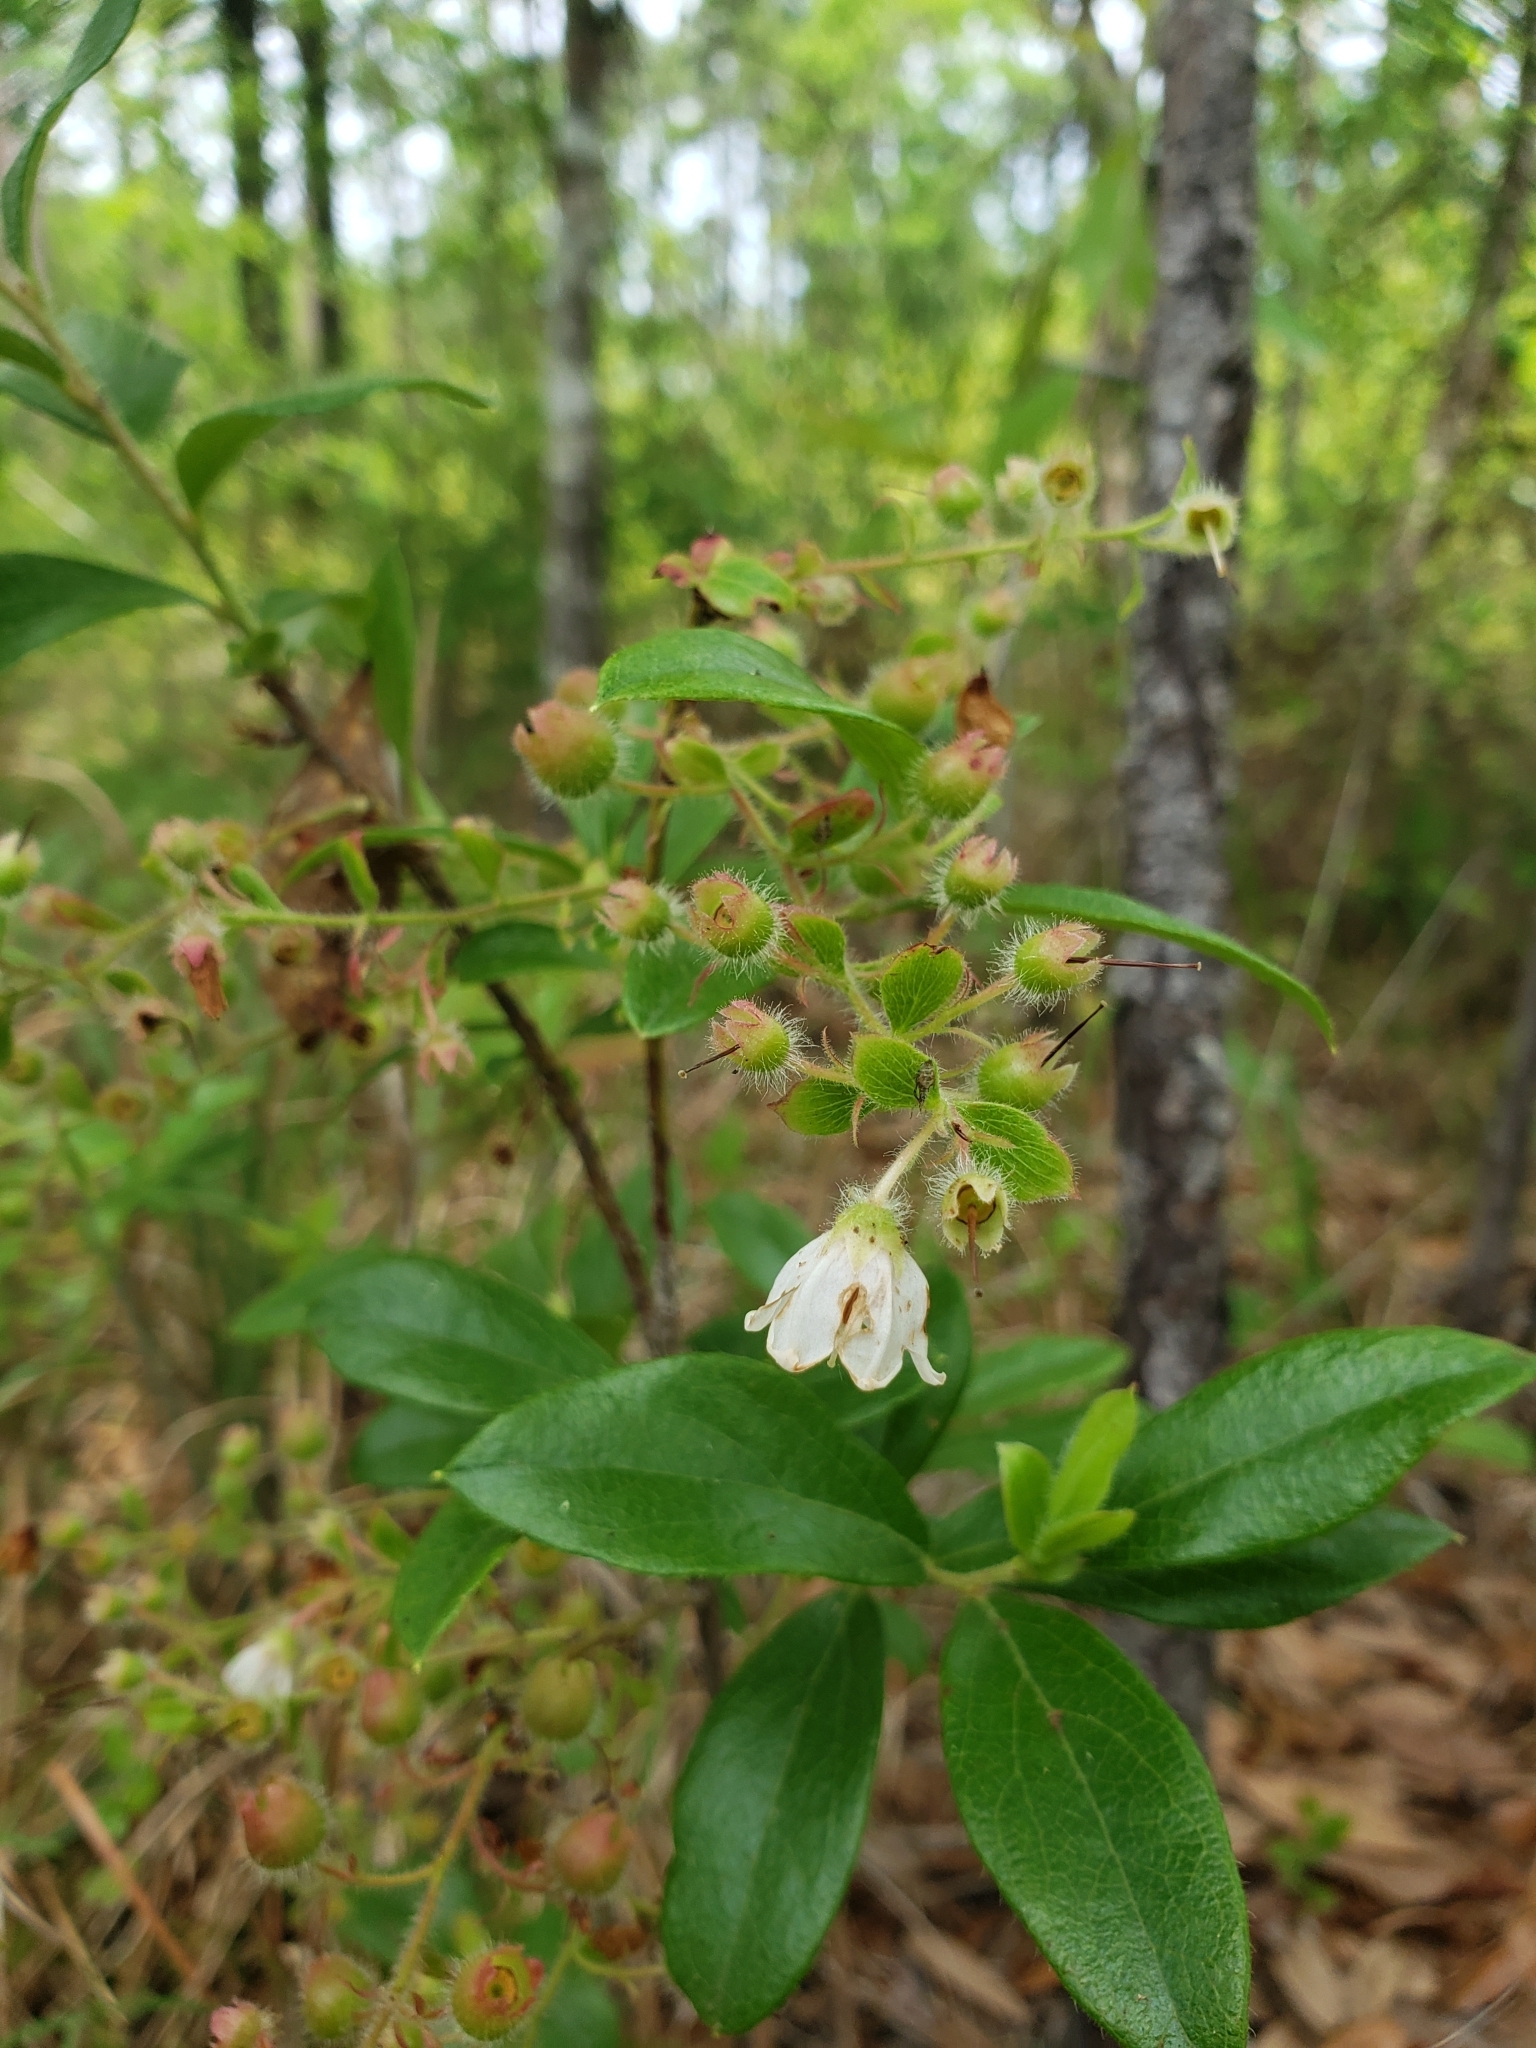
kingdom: Plantae
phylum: Tracheophyta
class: Magnoliopsida
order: Ericales
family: Ericaceae
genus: Gaylussacia
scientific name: Gaylussacia mosieri
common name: Hirsute huckleberry
